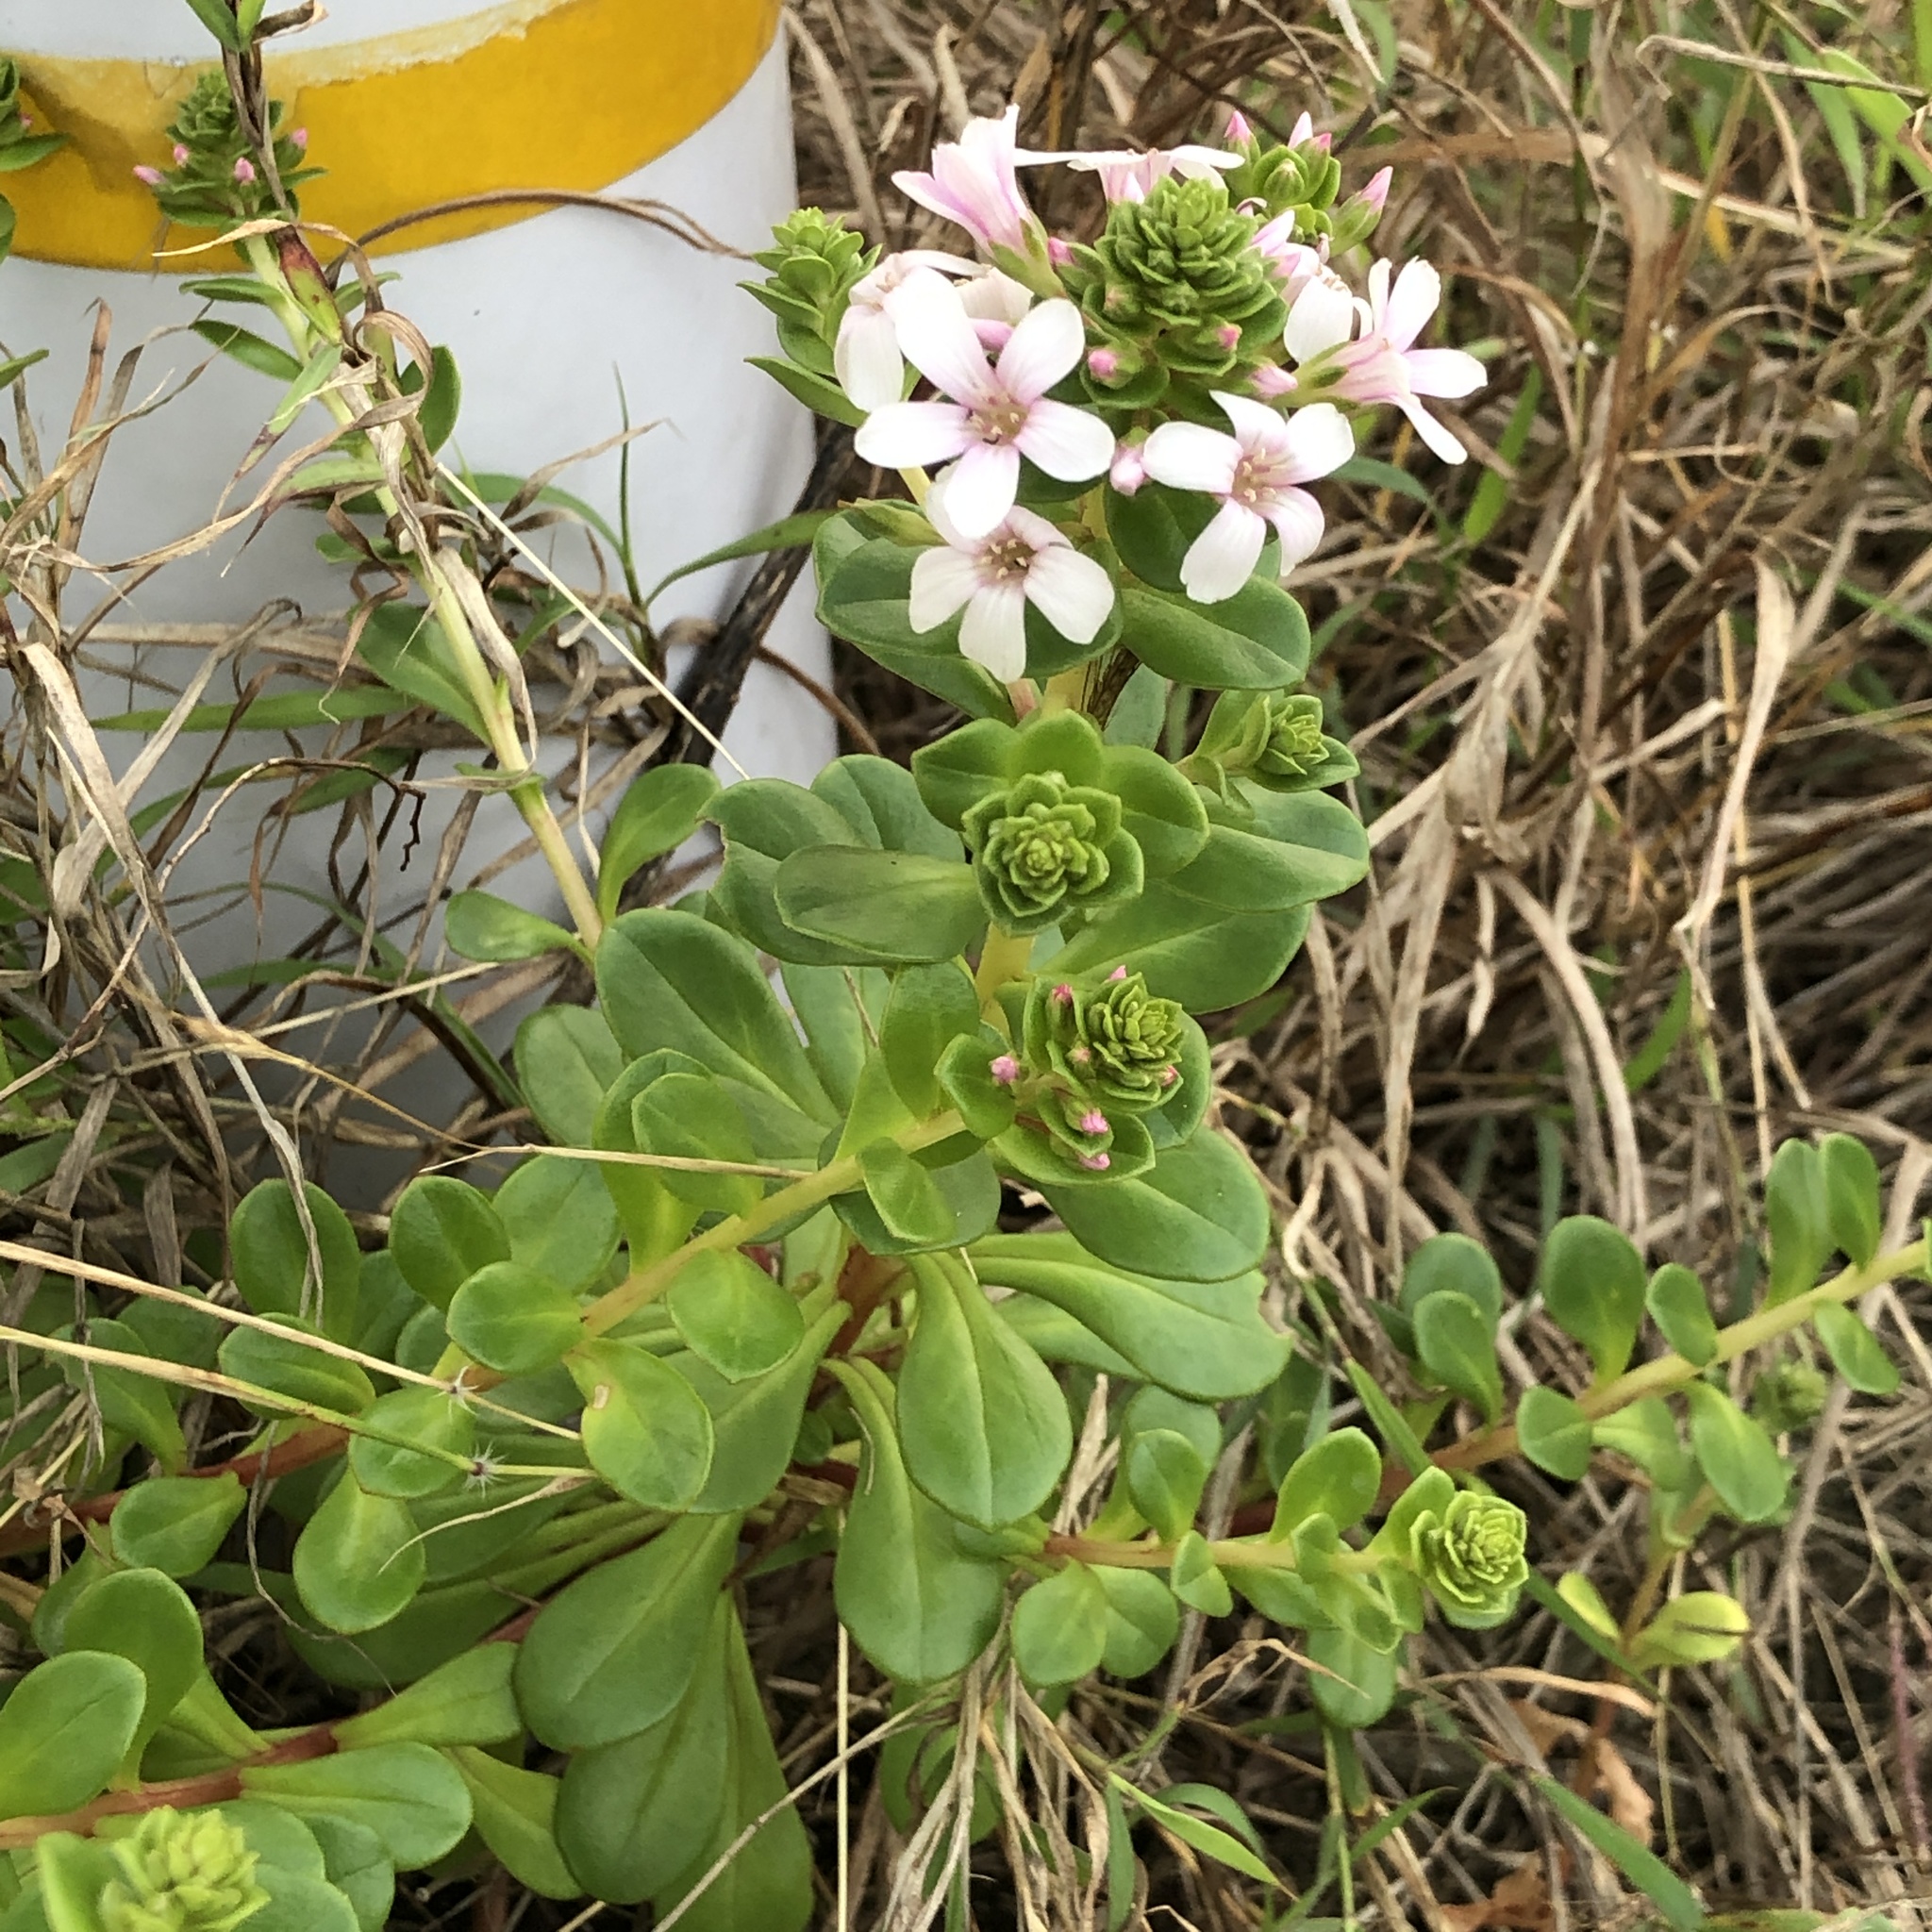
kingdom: Plantae
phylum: Tracheophyta
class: Magnoliopsida
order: Ericales
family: Primulaceae
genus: Lysimachia
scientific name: Lysimachia mauritiana
